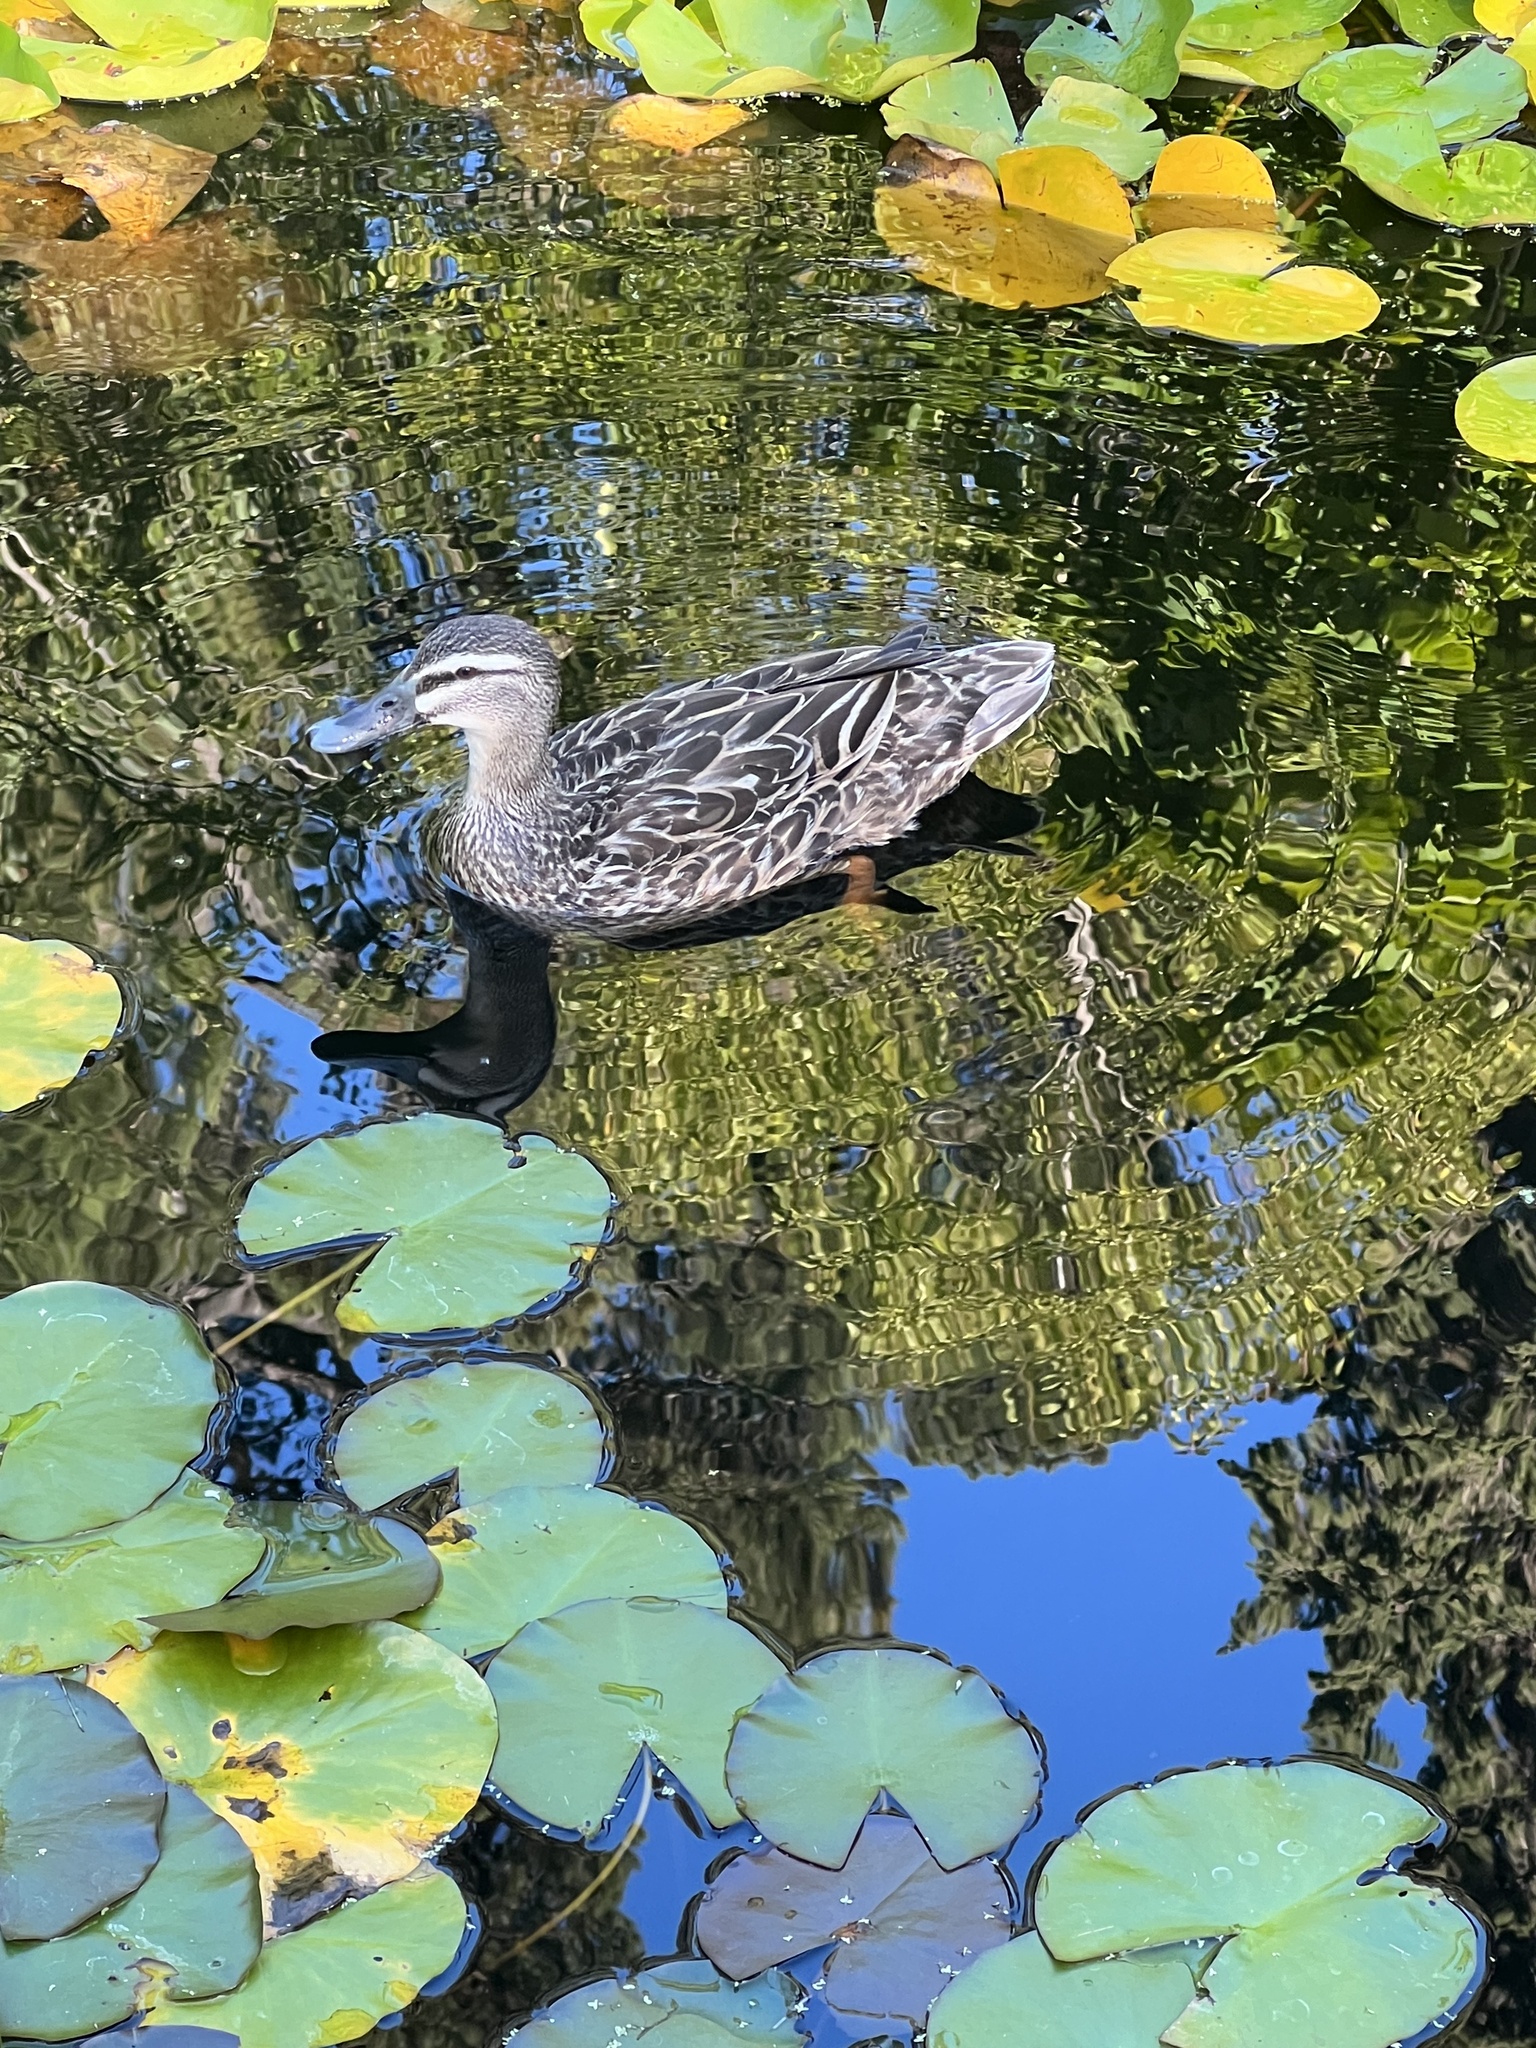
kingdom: Animalia
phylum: Chordata
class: Aves
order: Anseriformes
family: Anatidae
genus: Anas
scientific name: Anas
